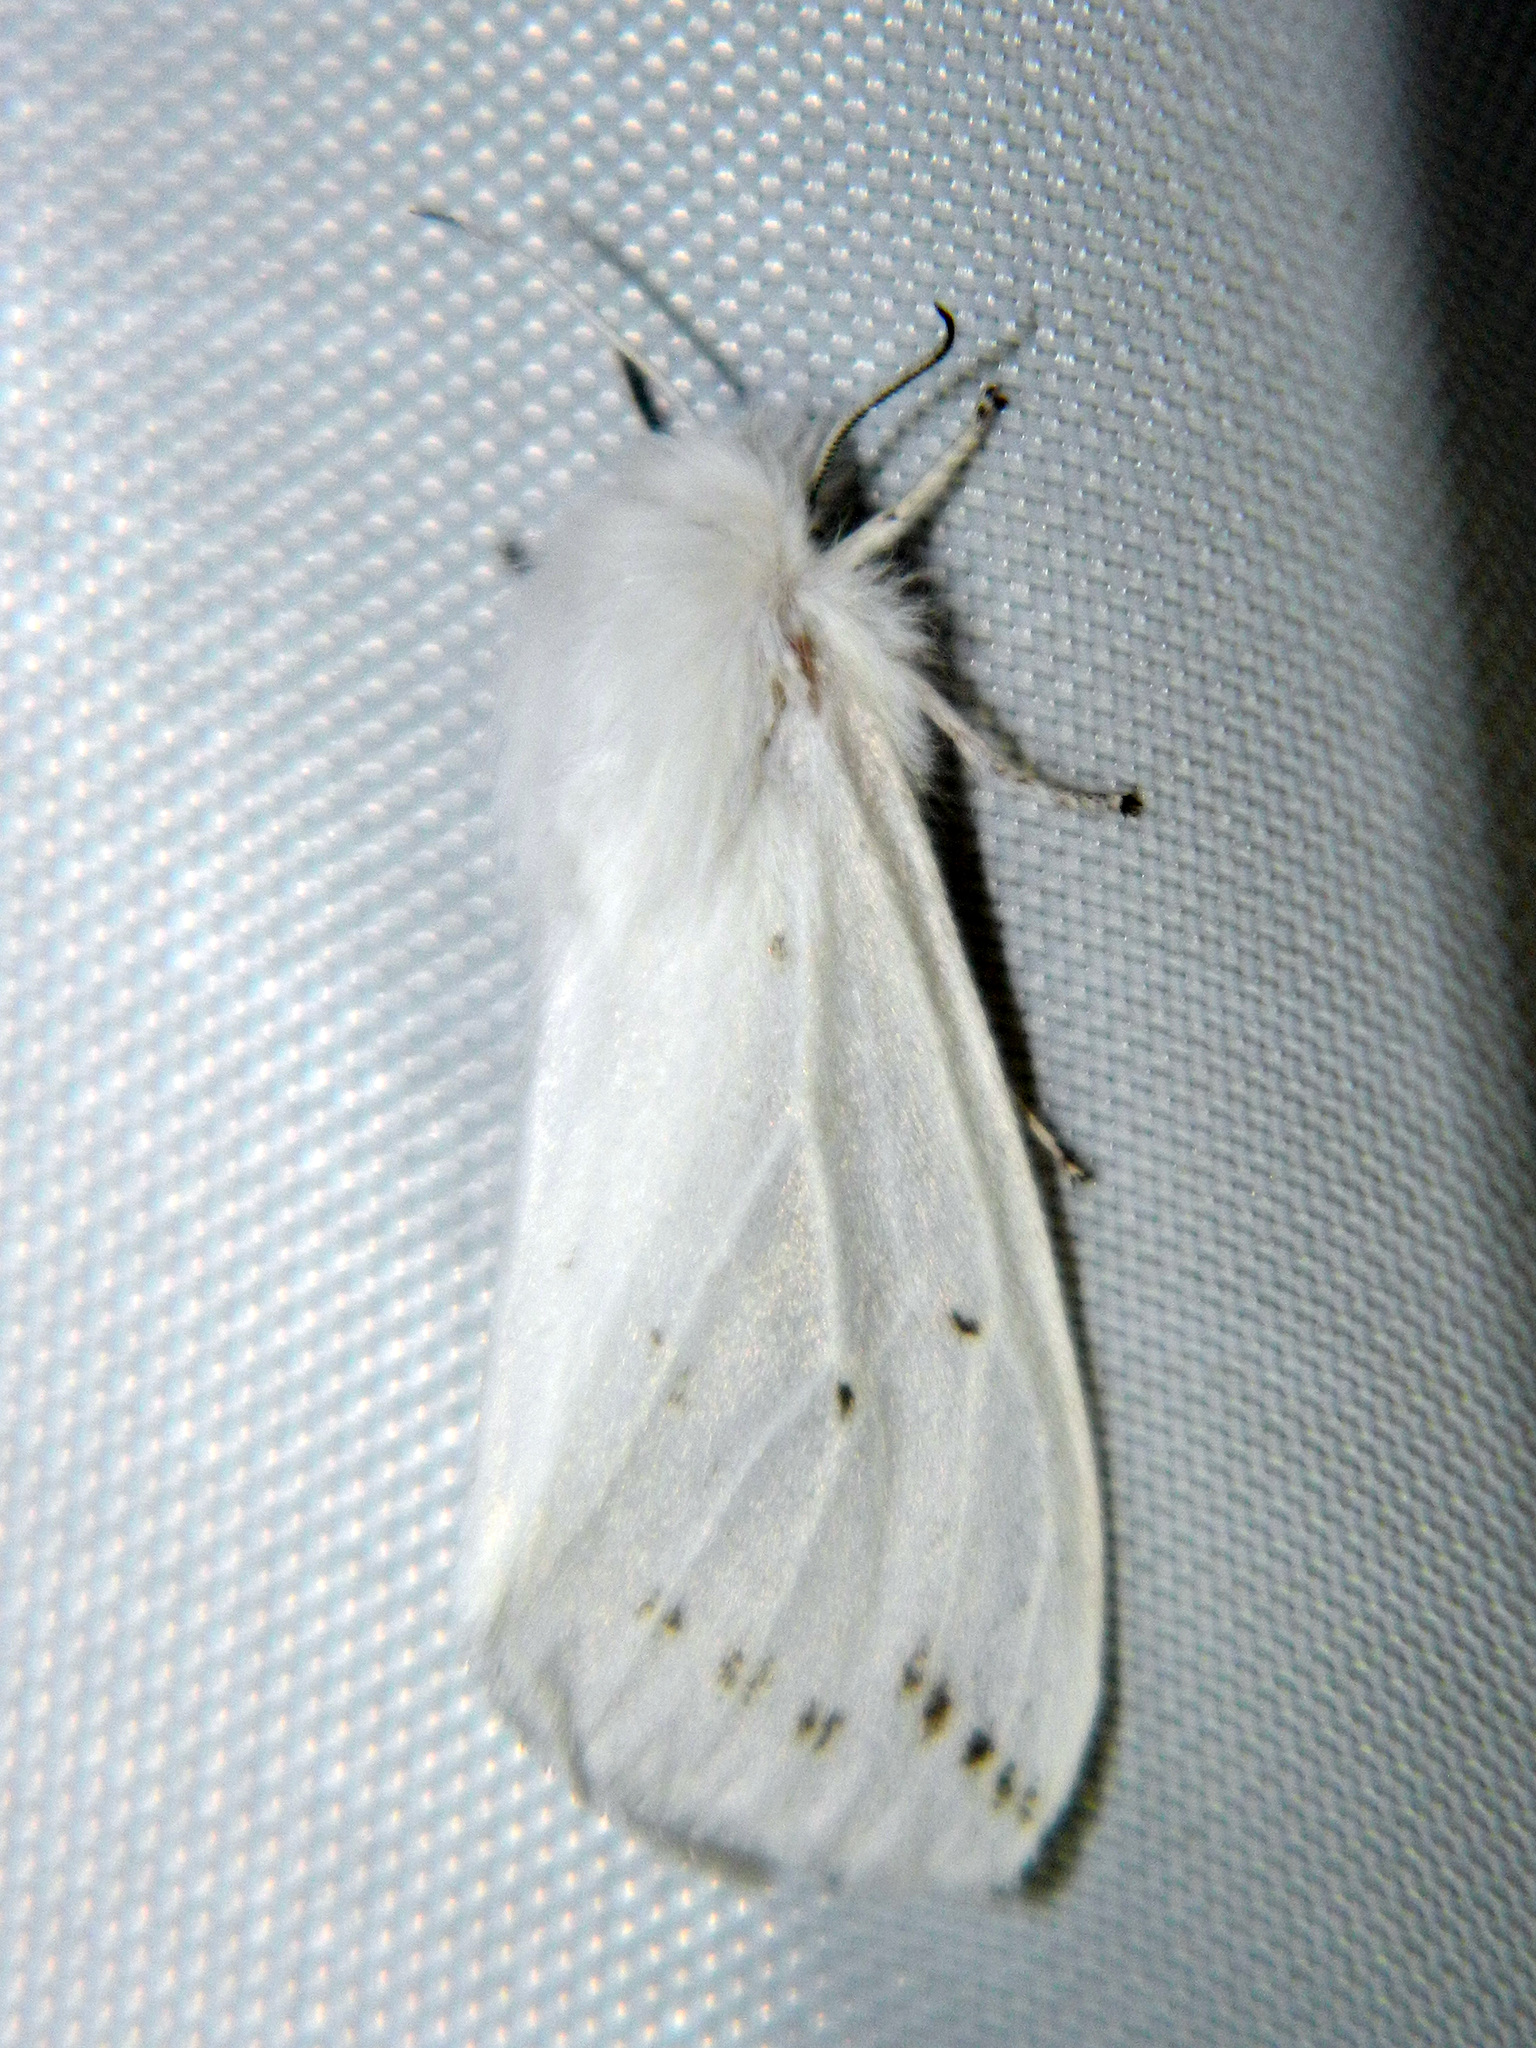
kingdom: Animalia
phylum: Arthropoda
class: Insecta
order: Lepidoptera
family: Erebidae
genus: Spilosoma
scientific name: Spilosoma congrua
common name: Agreeable tiger moth
